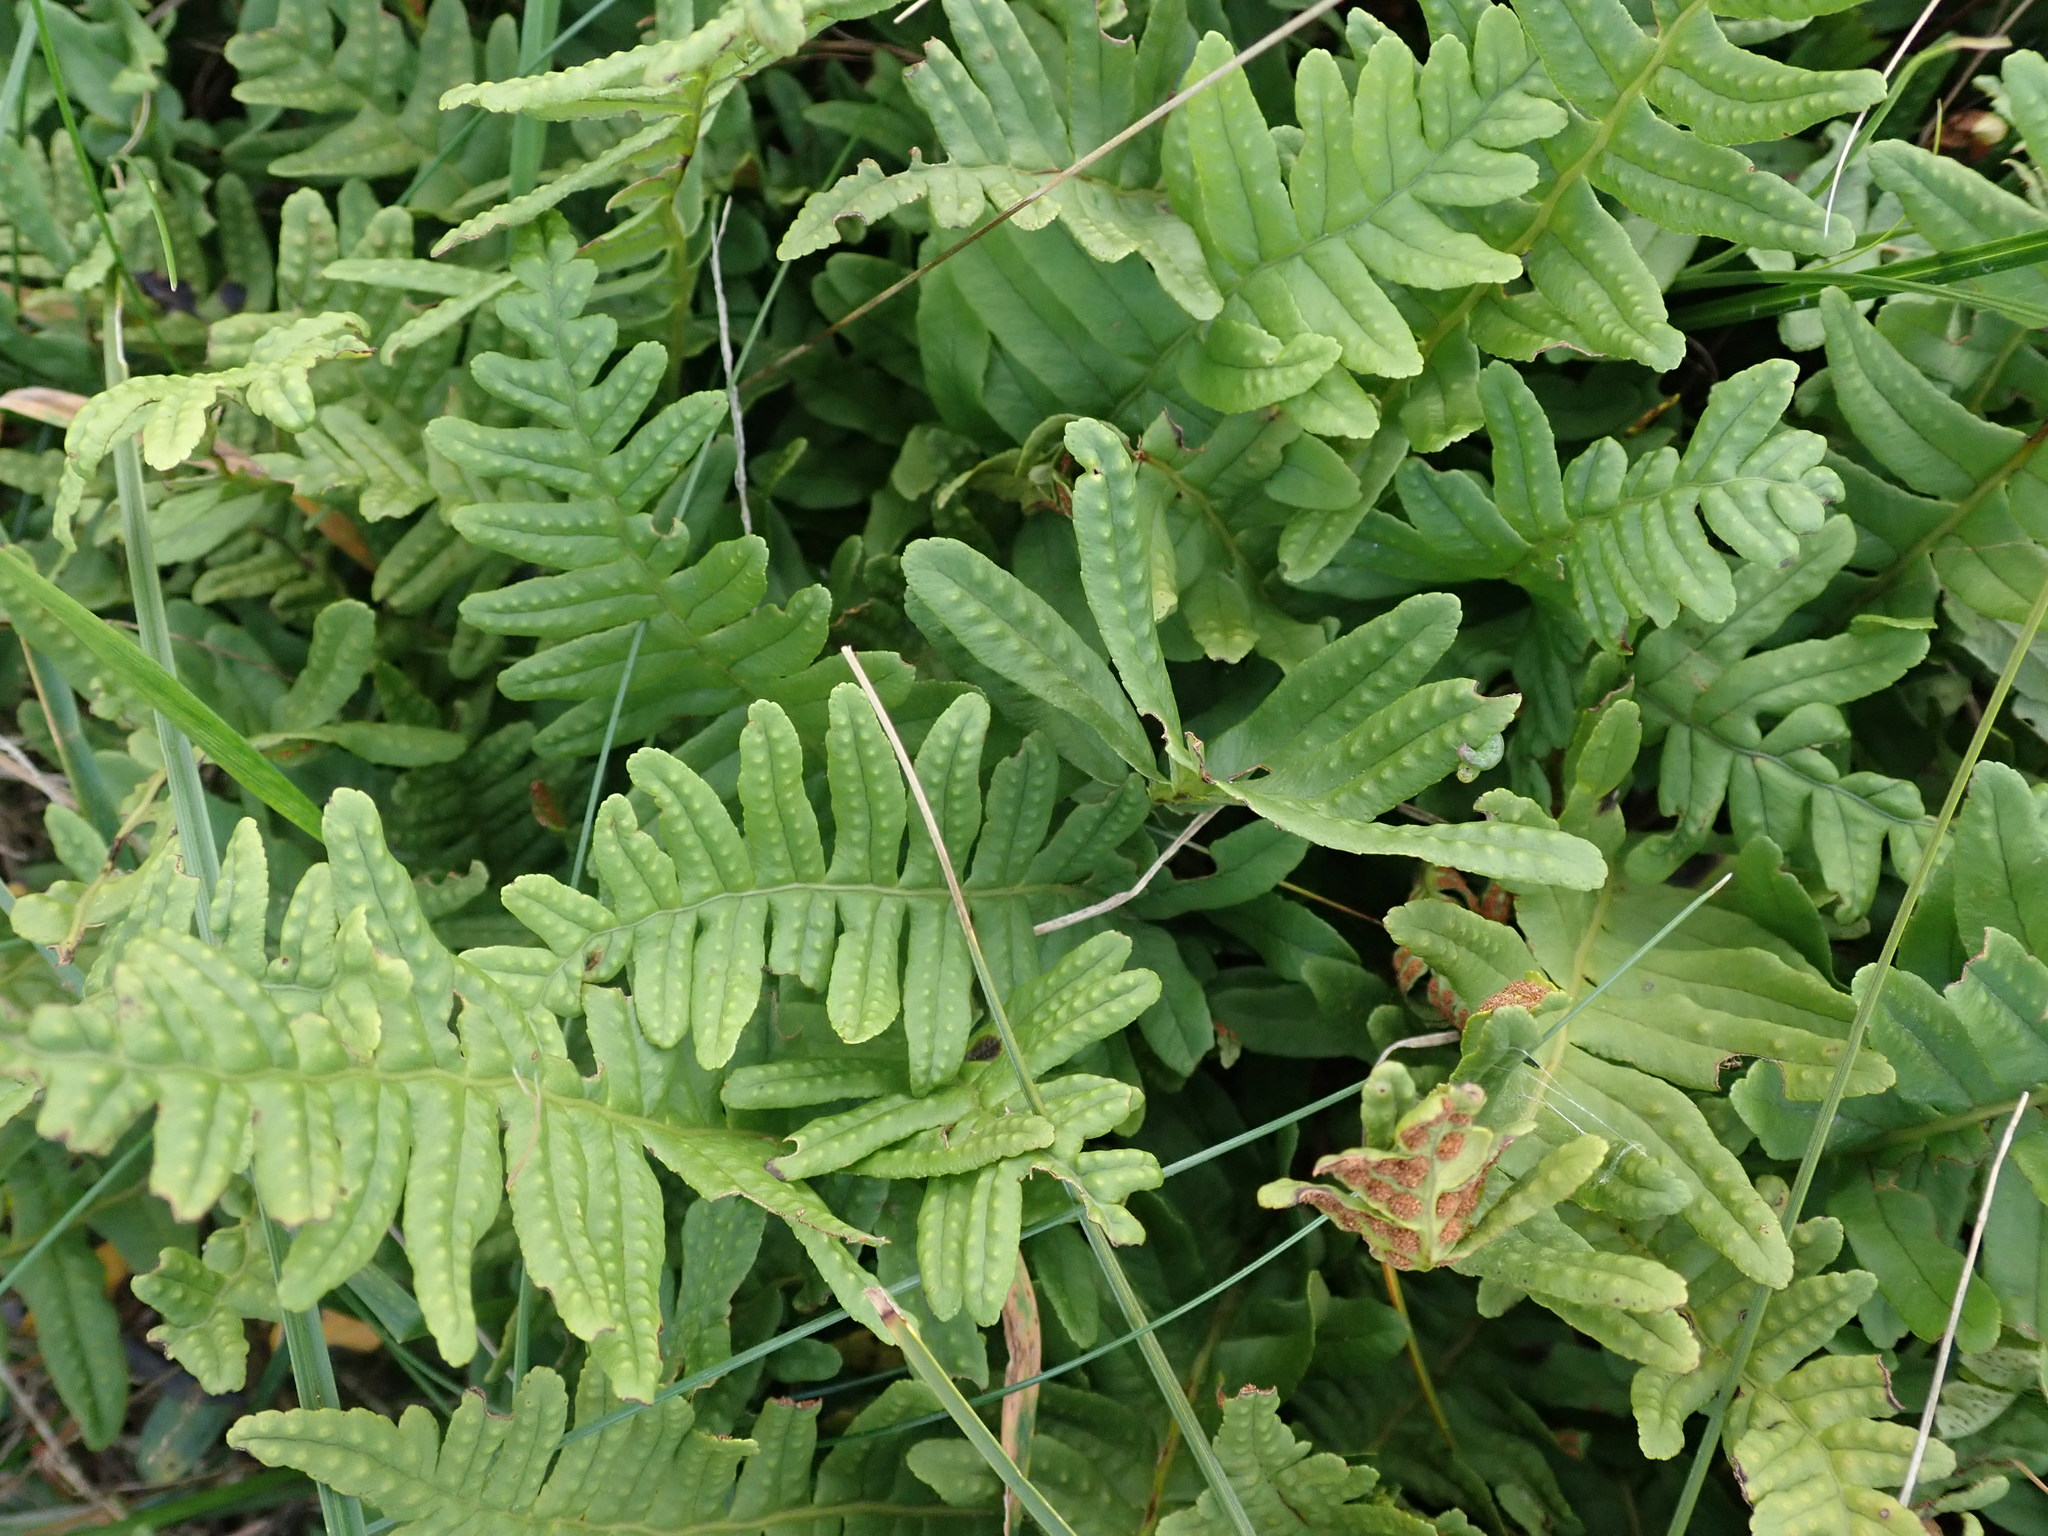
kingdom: Plantae
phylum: Tracheophyta
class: Polypodiopsida
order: Polypodiales
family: Polypodiaceae
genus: Polypodium
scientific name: Polypodium vulgare
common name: Common polypody
